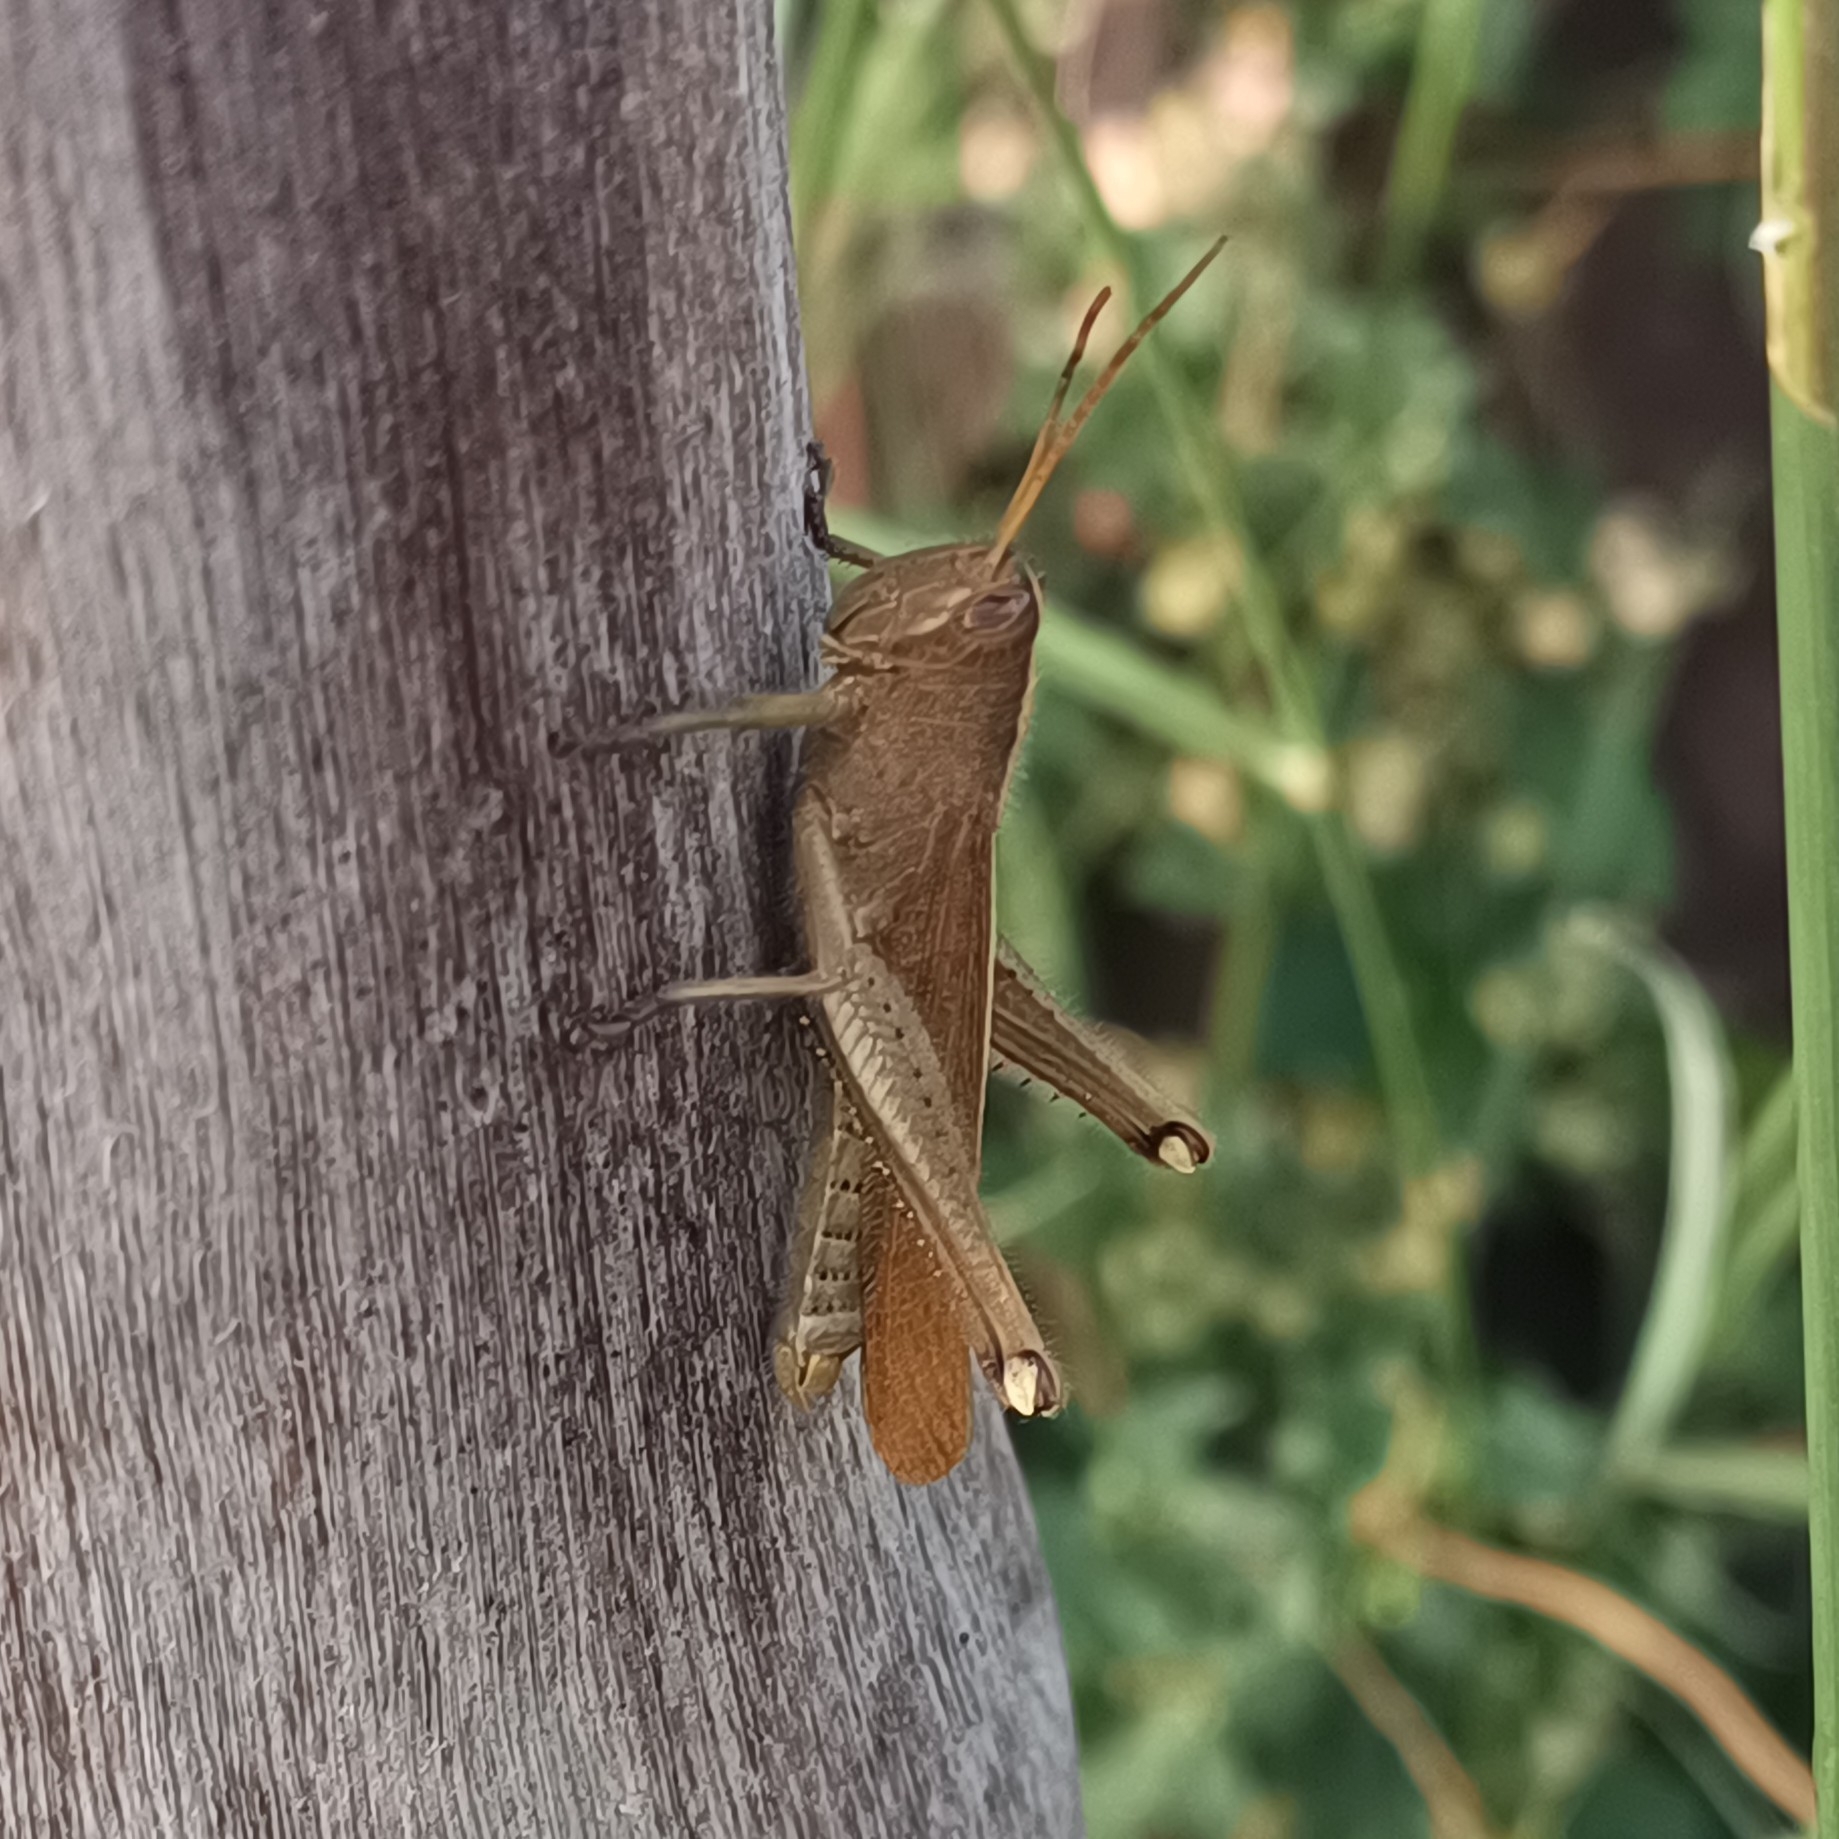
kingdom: Animalia
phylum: Arthropoda
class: Insecta
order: Orthoptera
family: Acrididae
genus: Schistocerca
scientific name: Schistocerca cohni
